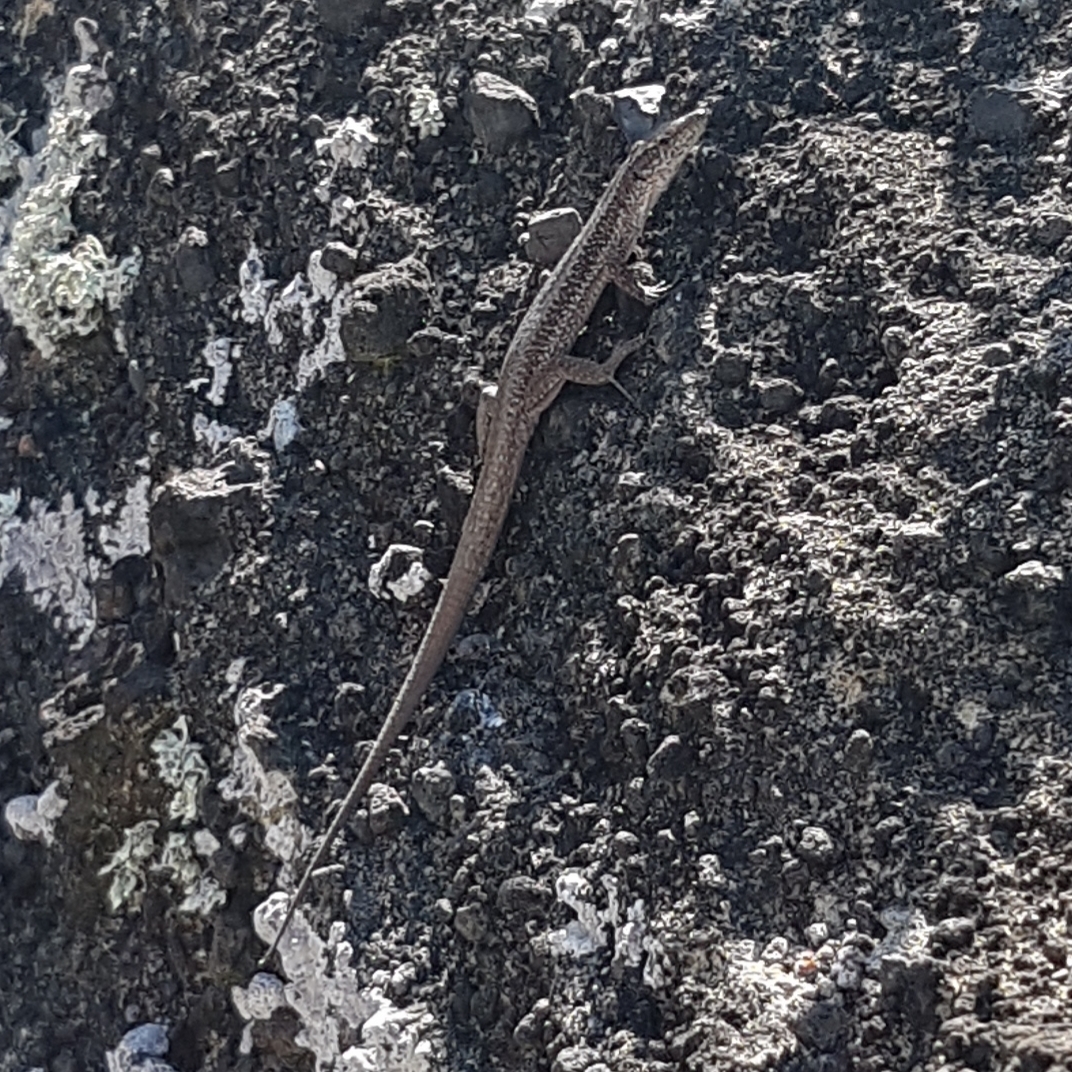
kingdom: Animalia
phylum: Chordata
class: Squamata
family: Lacertidae
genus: Teira
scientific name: Teira dugesii
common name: Madeira lizard
